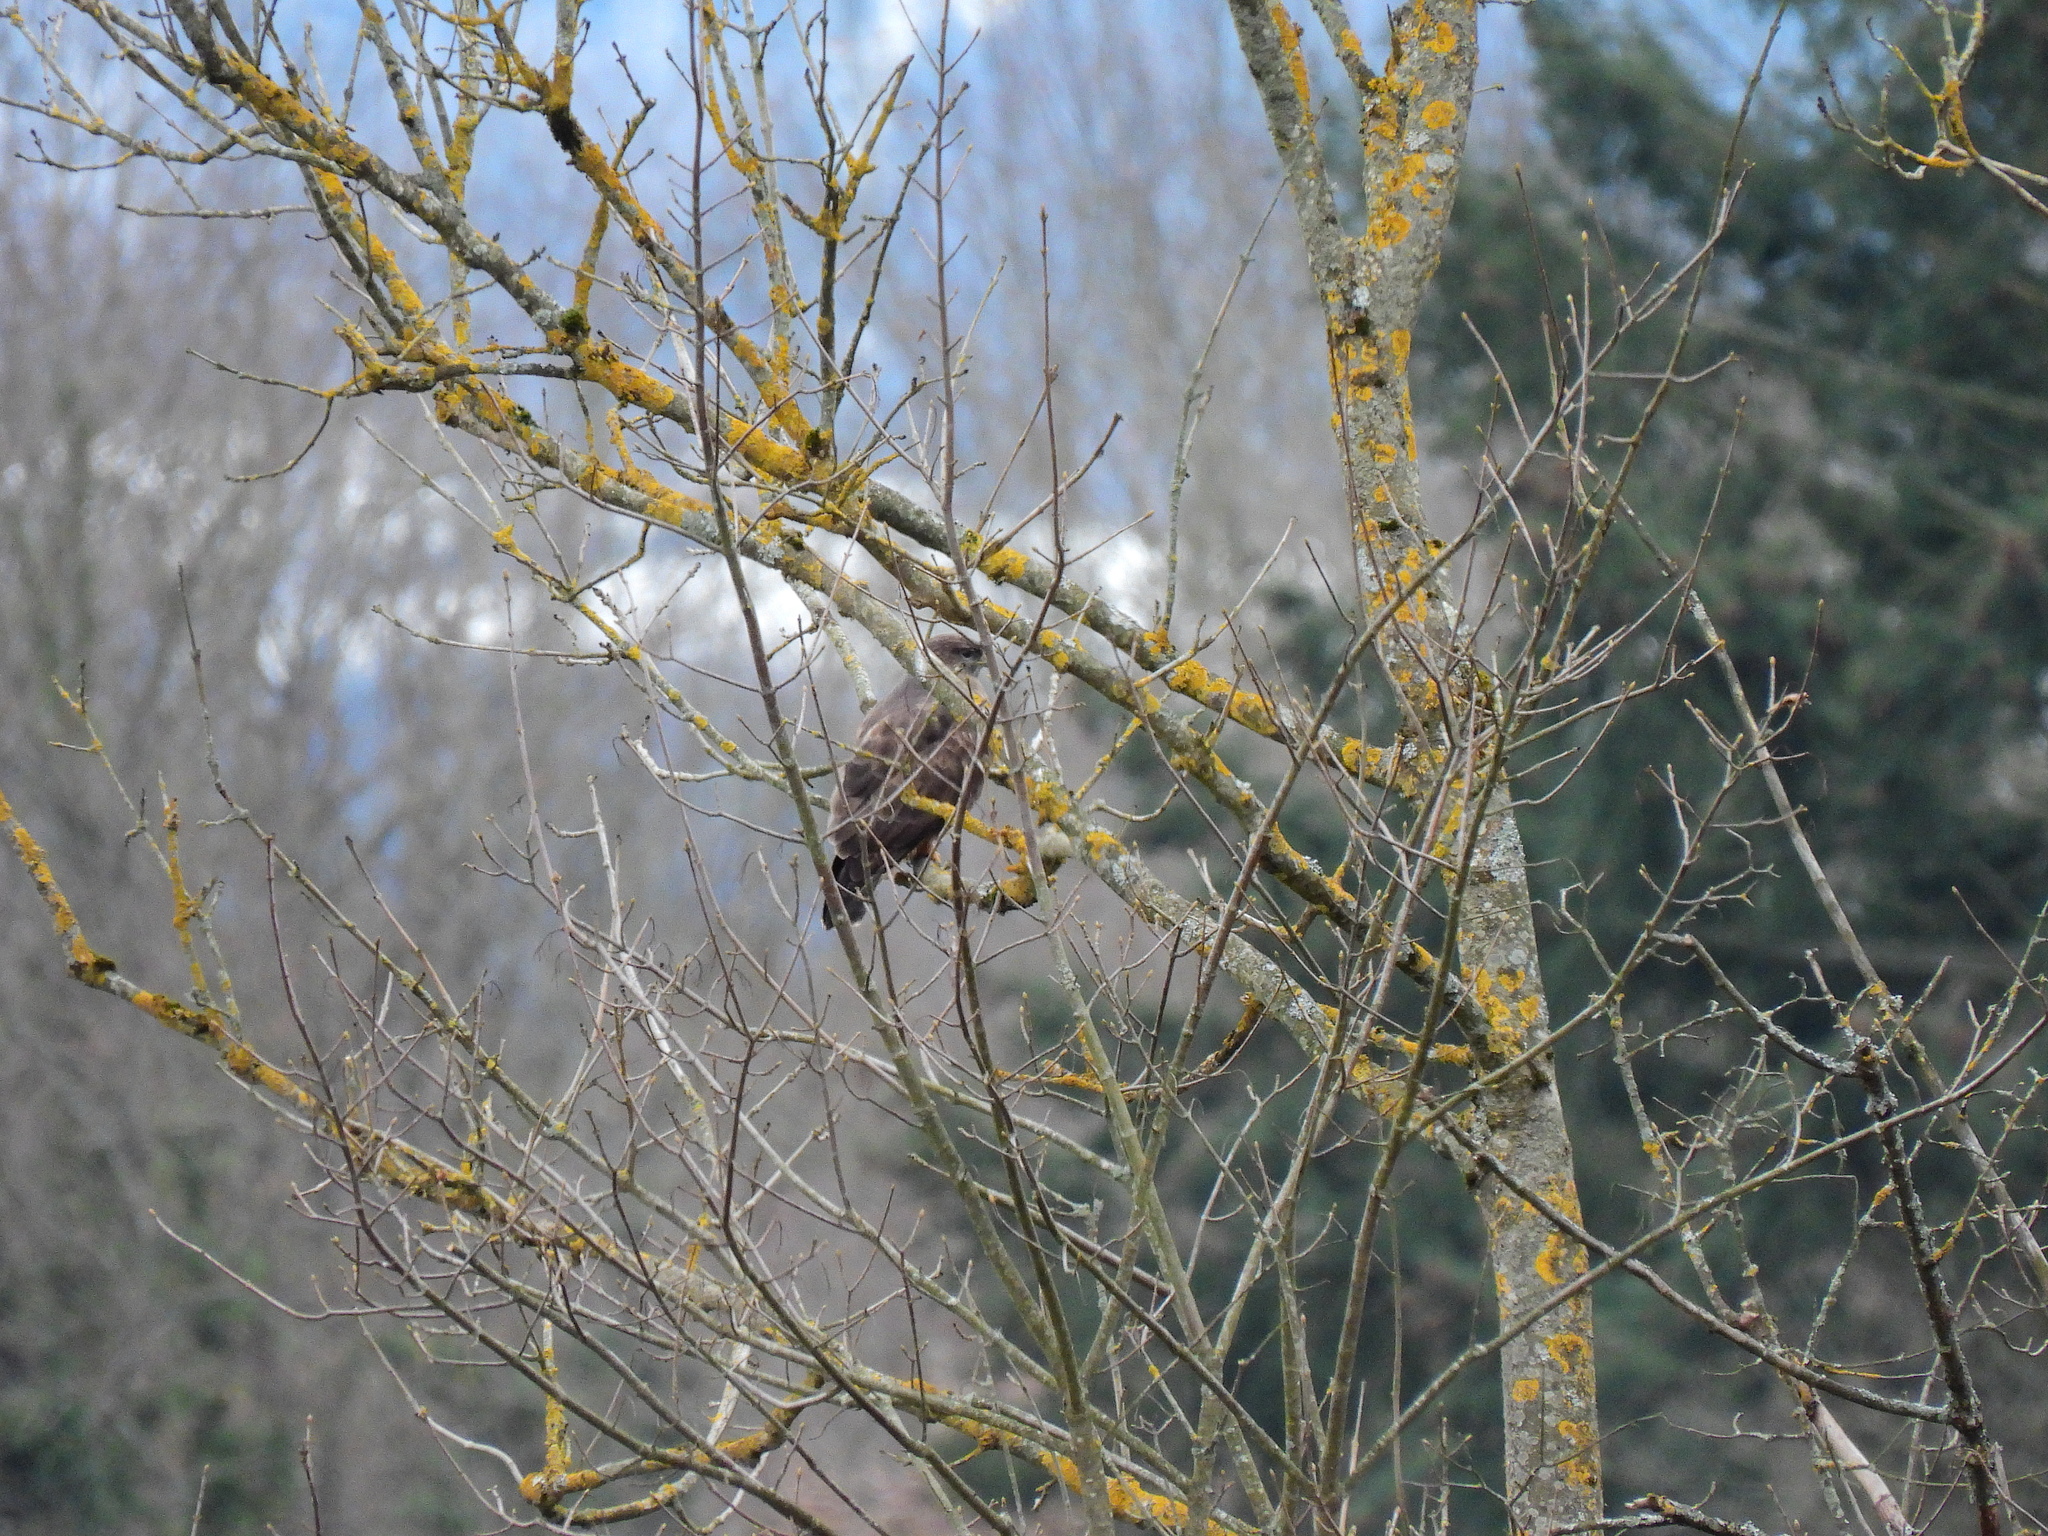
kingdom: Animalia
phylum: Chordata
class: Aves
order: Accipitriformes
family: Accipitridae
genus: Buteo
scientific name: Buteo buteo
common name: Common buzzard
